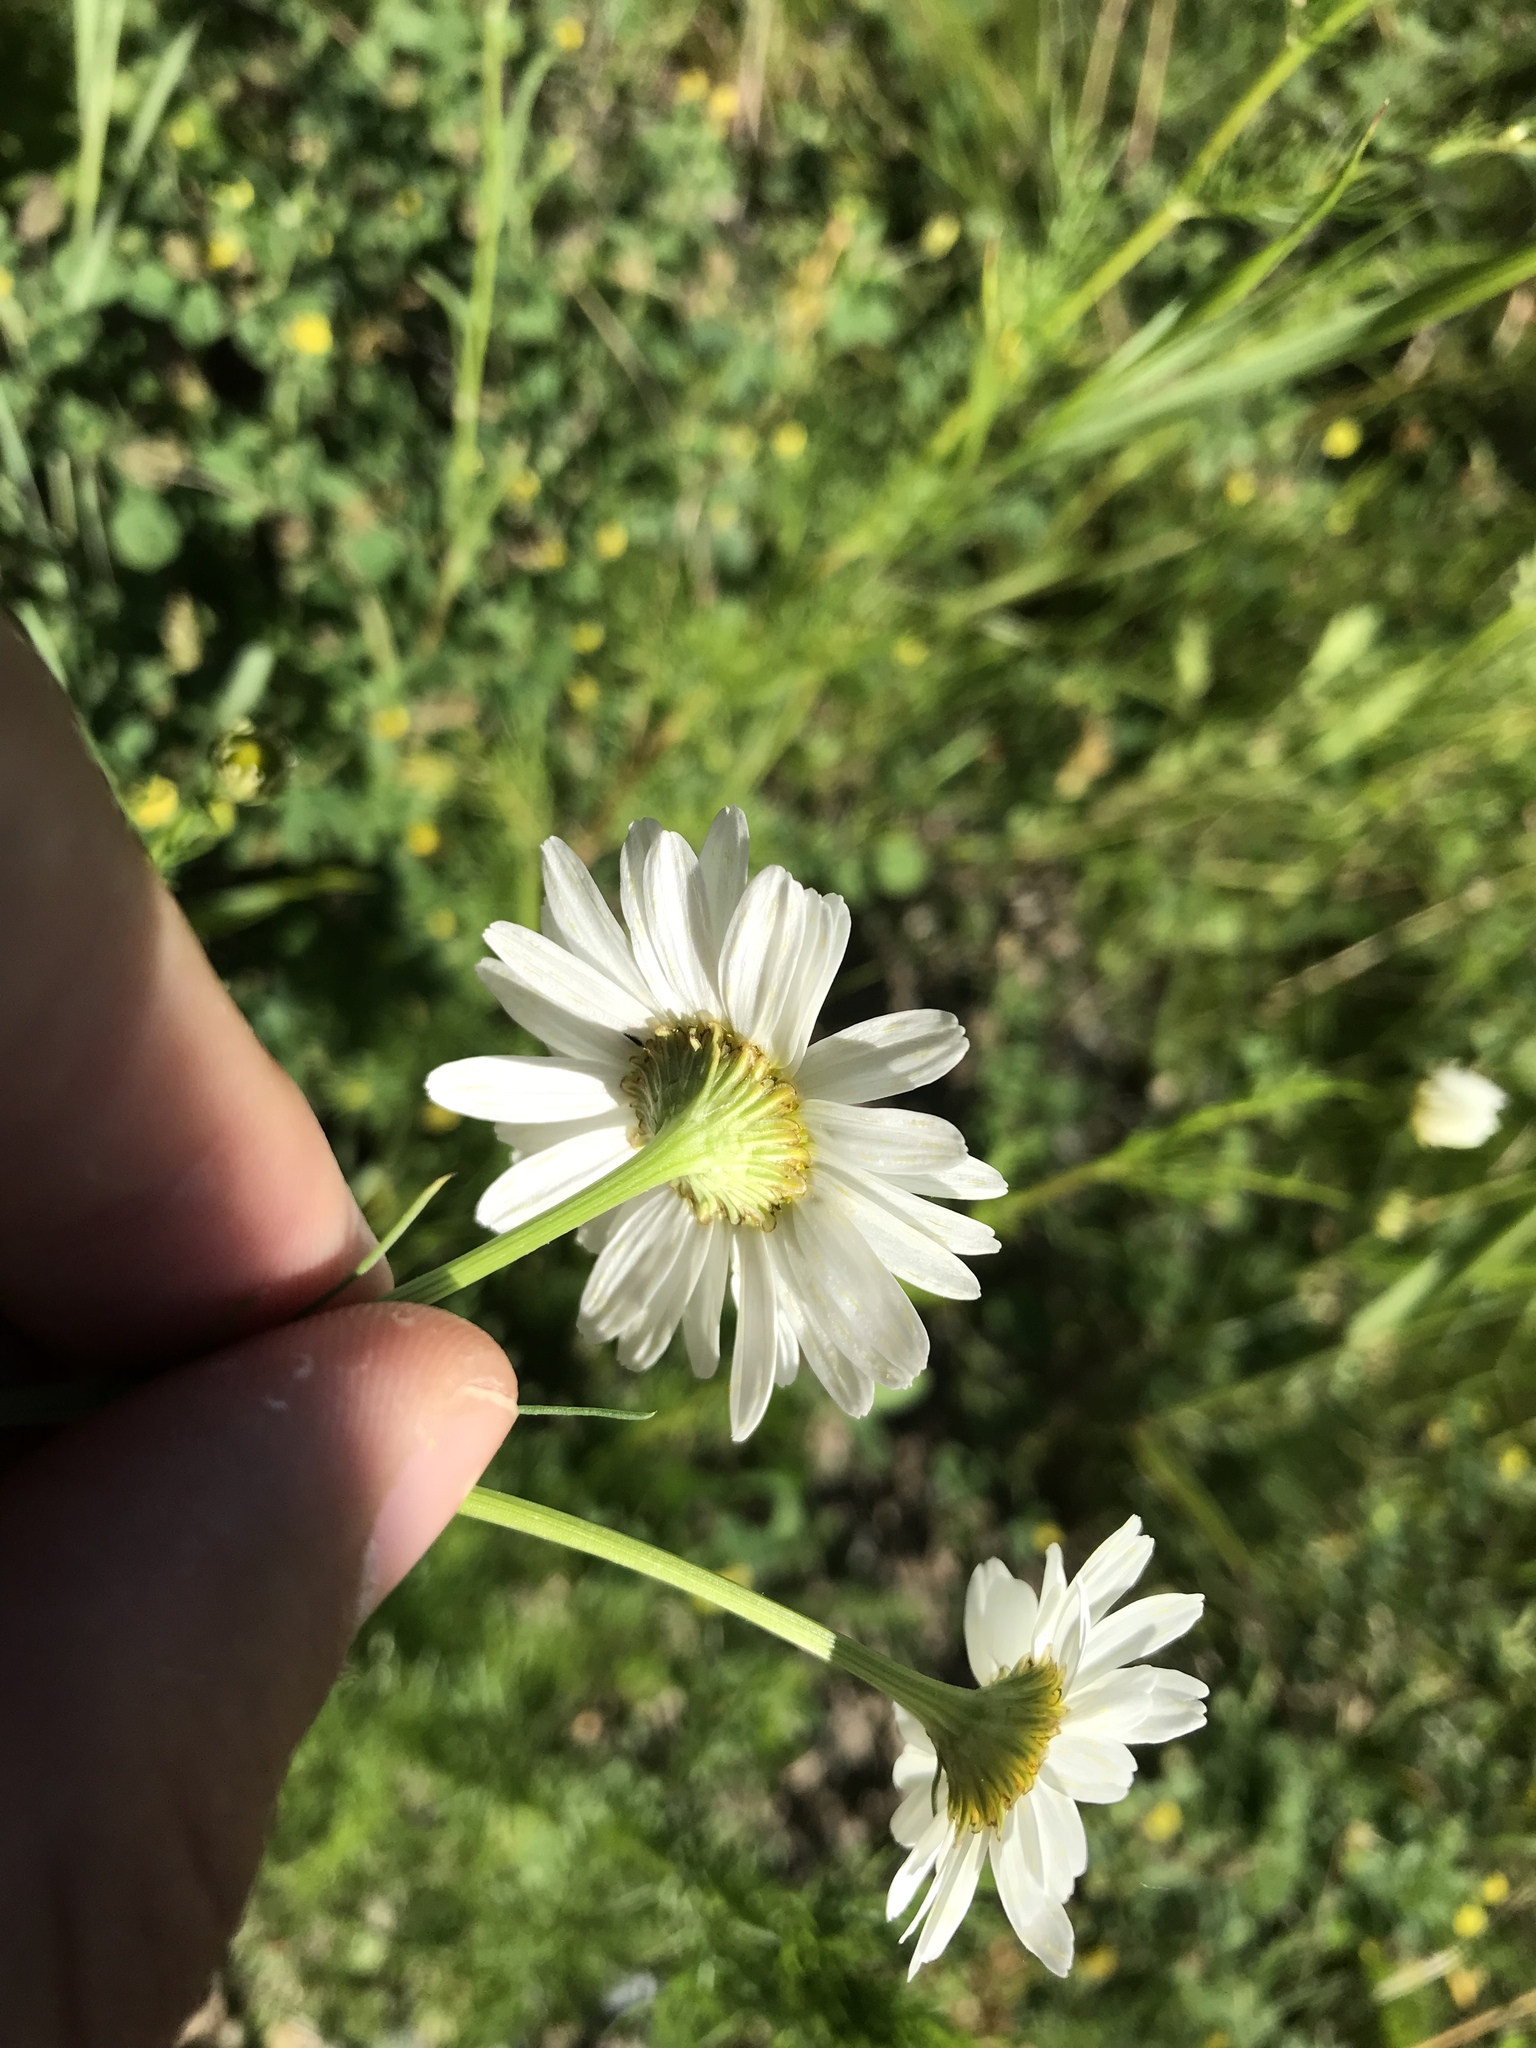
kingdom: Plantae
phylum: Tracheophyta
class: Magnoliopsida
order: Asterales
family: Asteraceae
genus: Tripleurospermum
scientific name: Tripleurospermum inodorum
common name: Scentless mayweed
